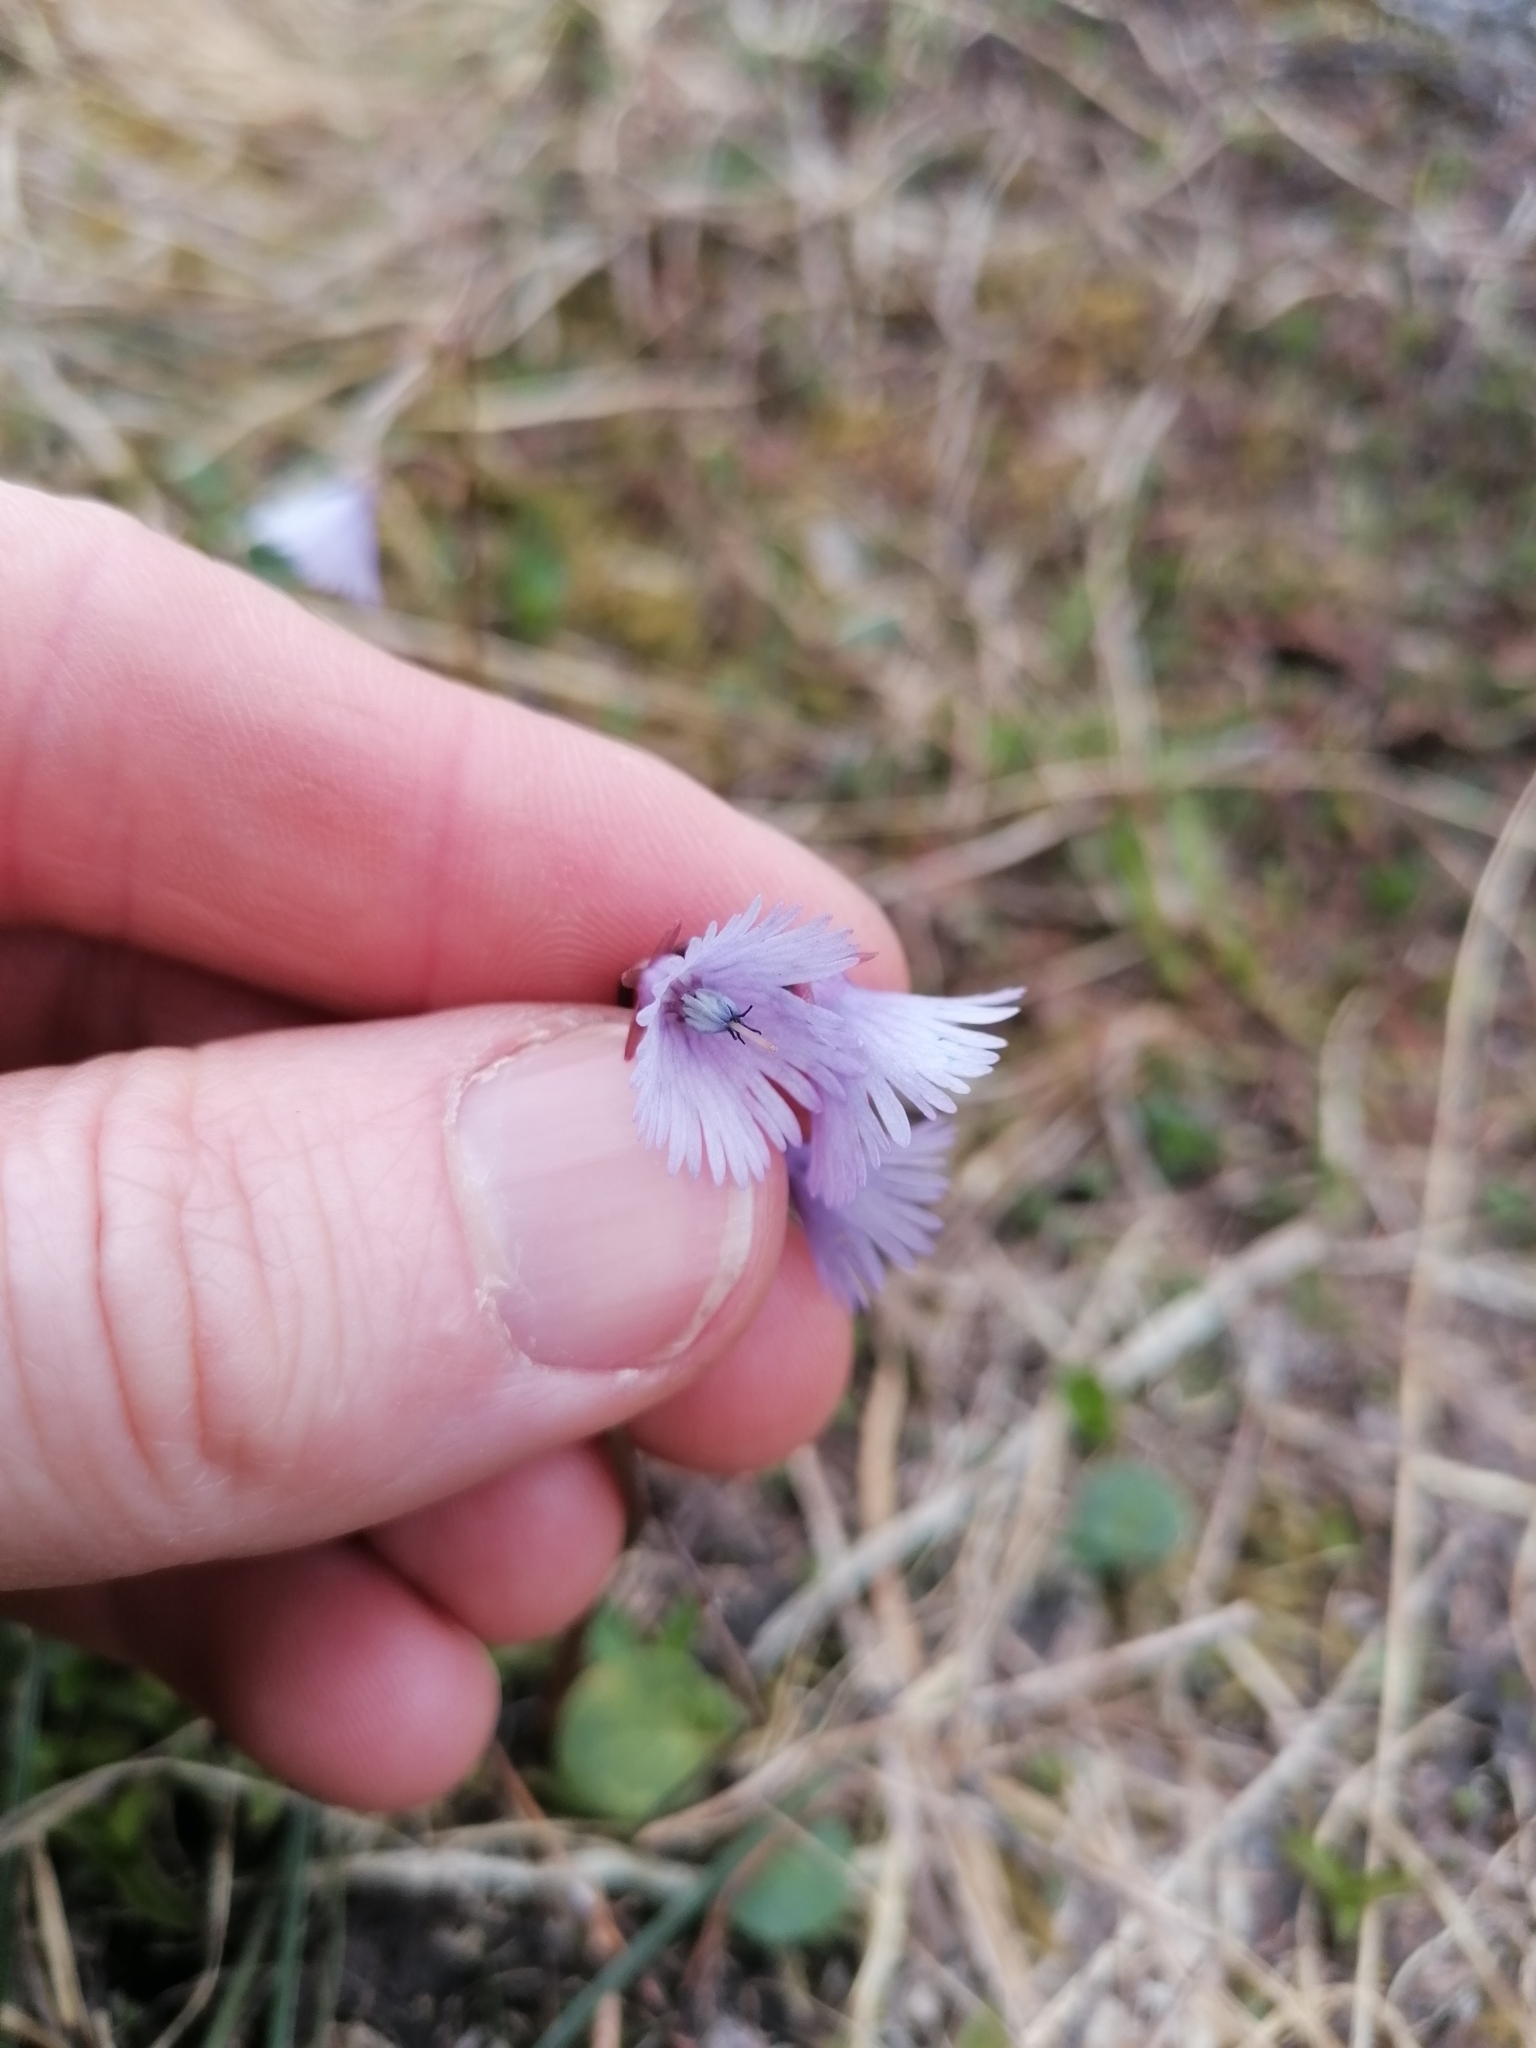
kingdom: Plantae
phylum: Tracheophyta
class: Magnoliopsida
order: Ericales
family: Primulaceae
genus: Soldanella
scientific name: Soldanella alpina
